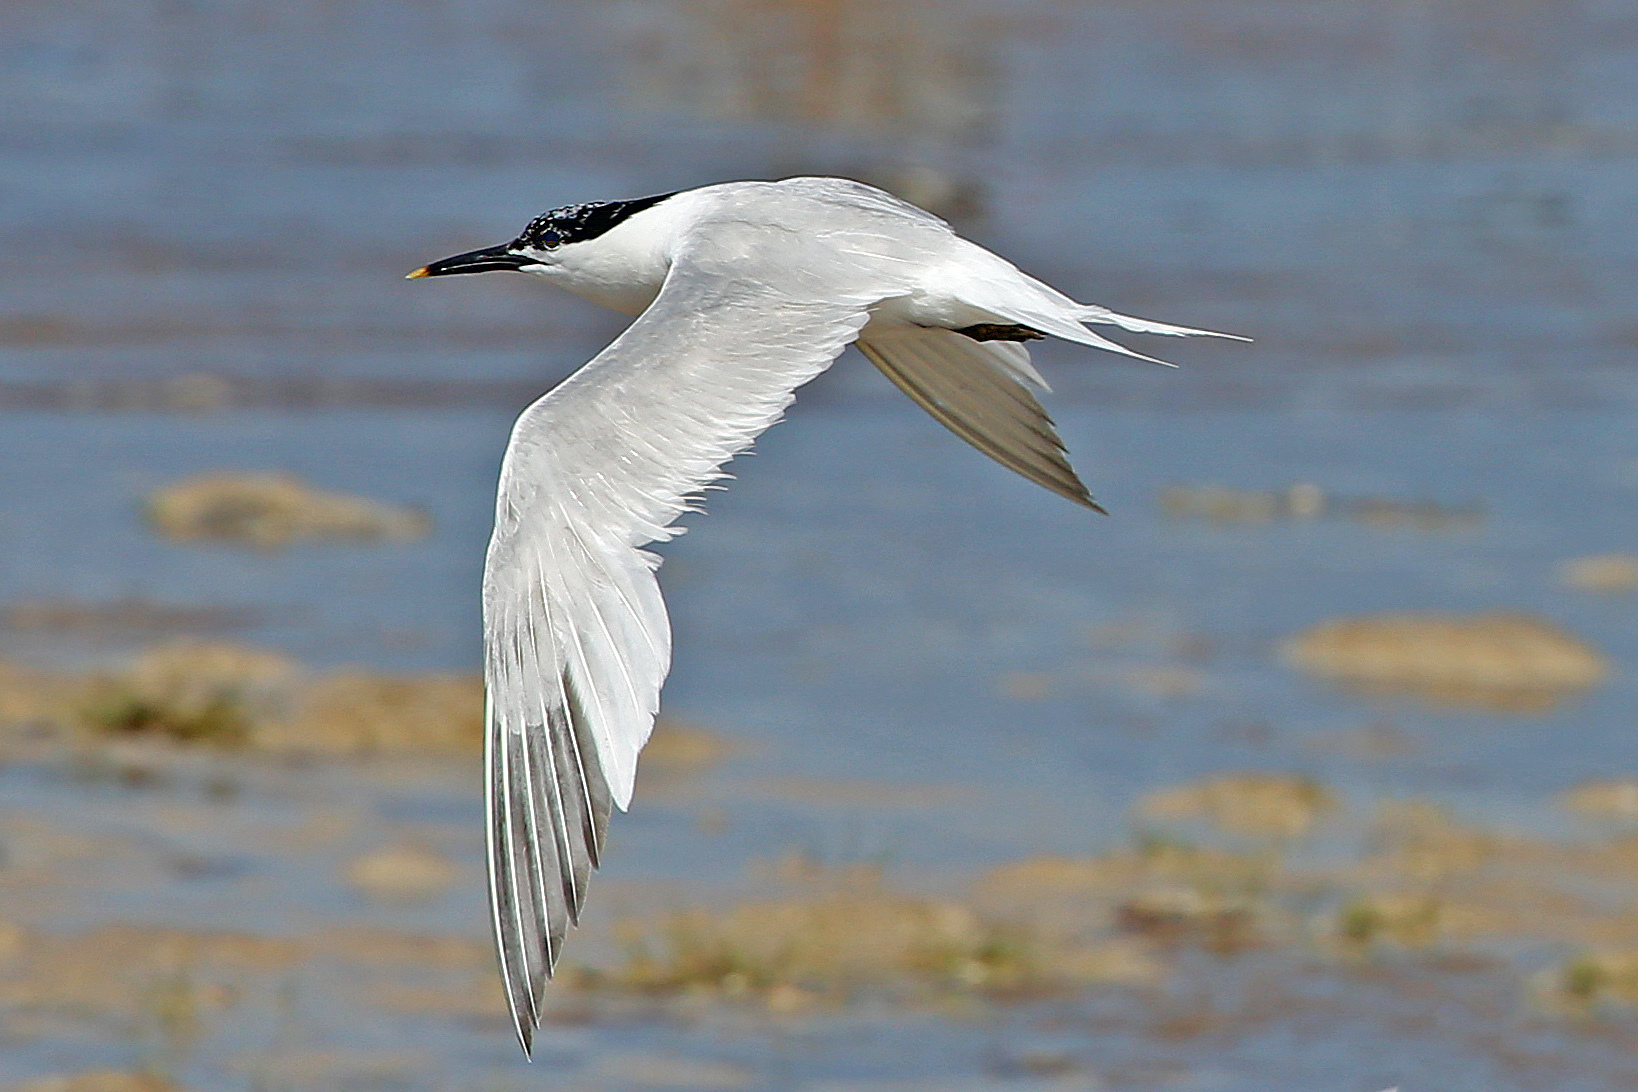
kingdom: Animalia
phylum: Chordata
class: Aves
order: Charadriiformes
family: Laridae
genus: Thalasseus
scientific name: Thalasseus sandvicensis
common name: Sandwich tern
